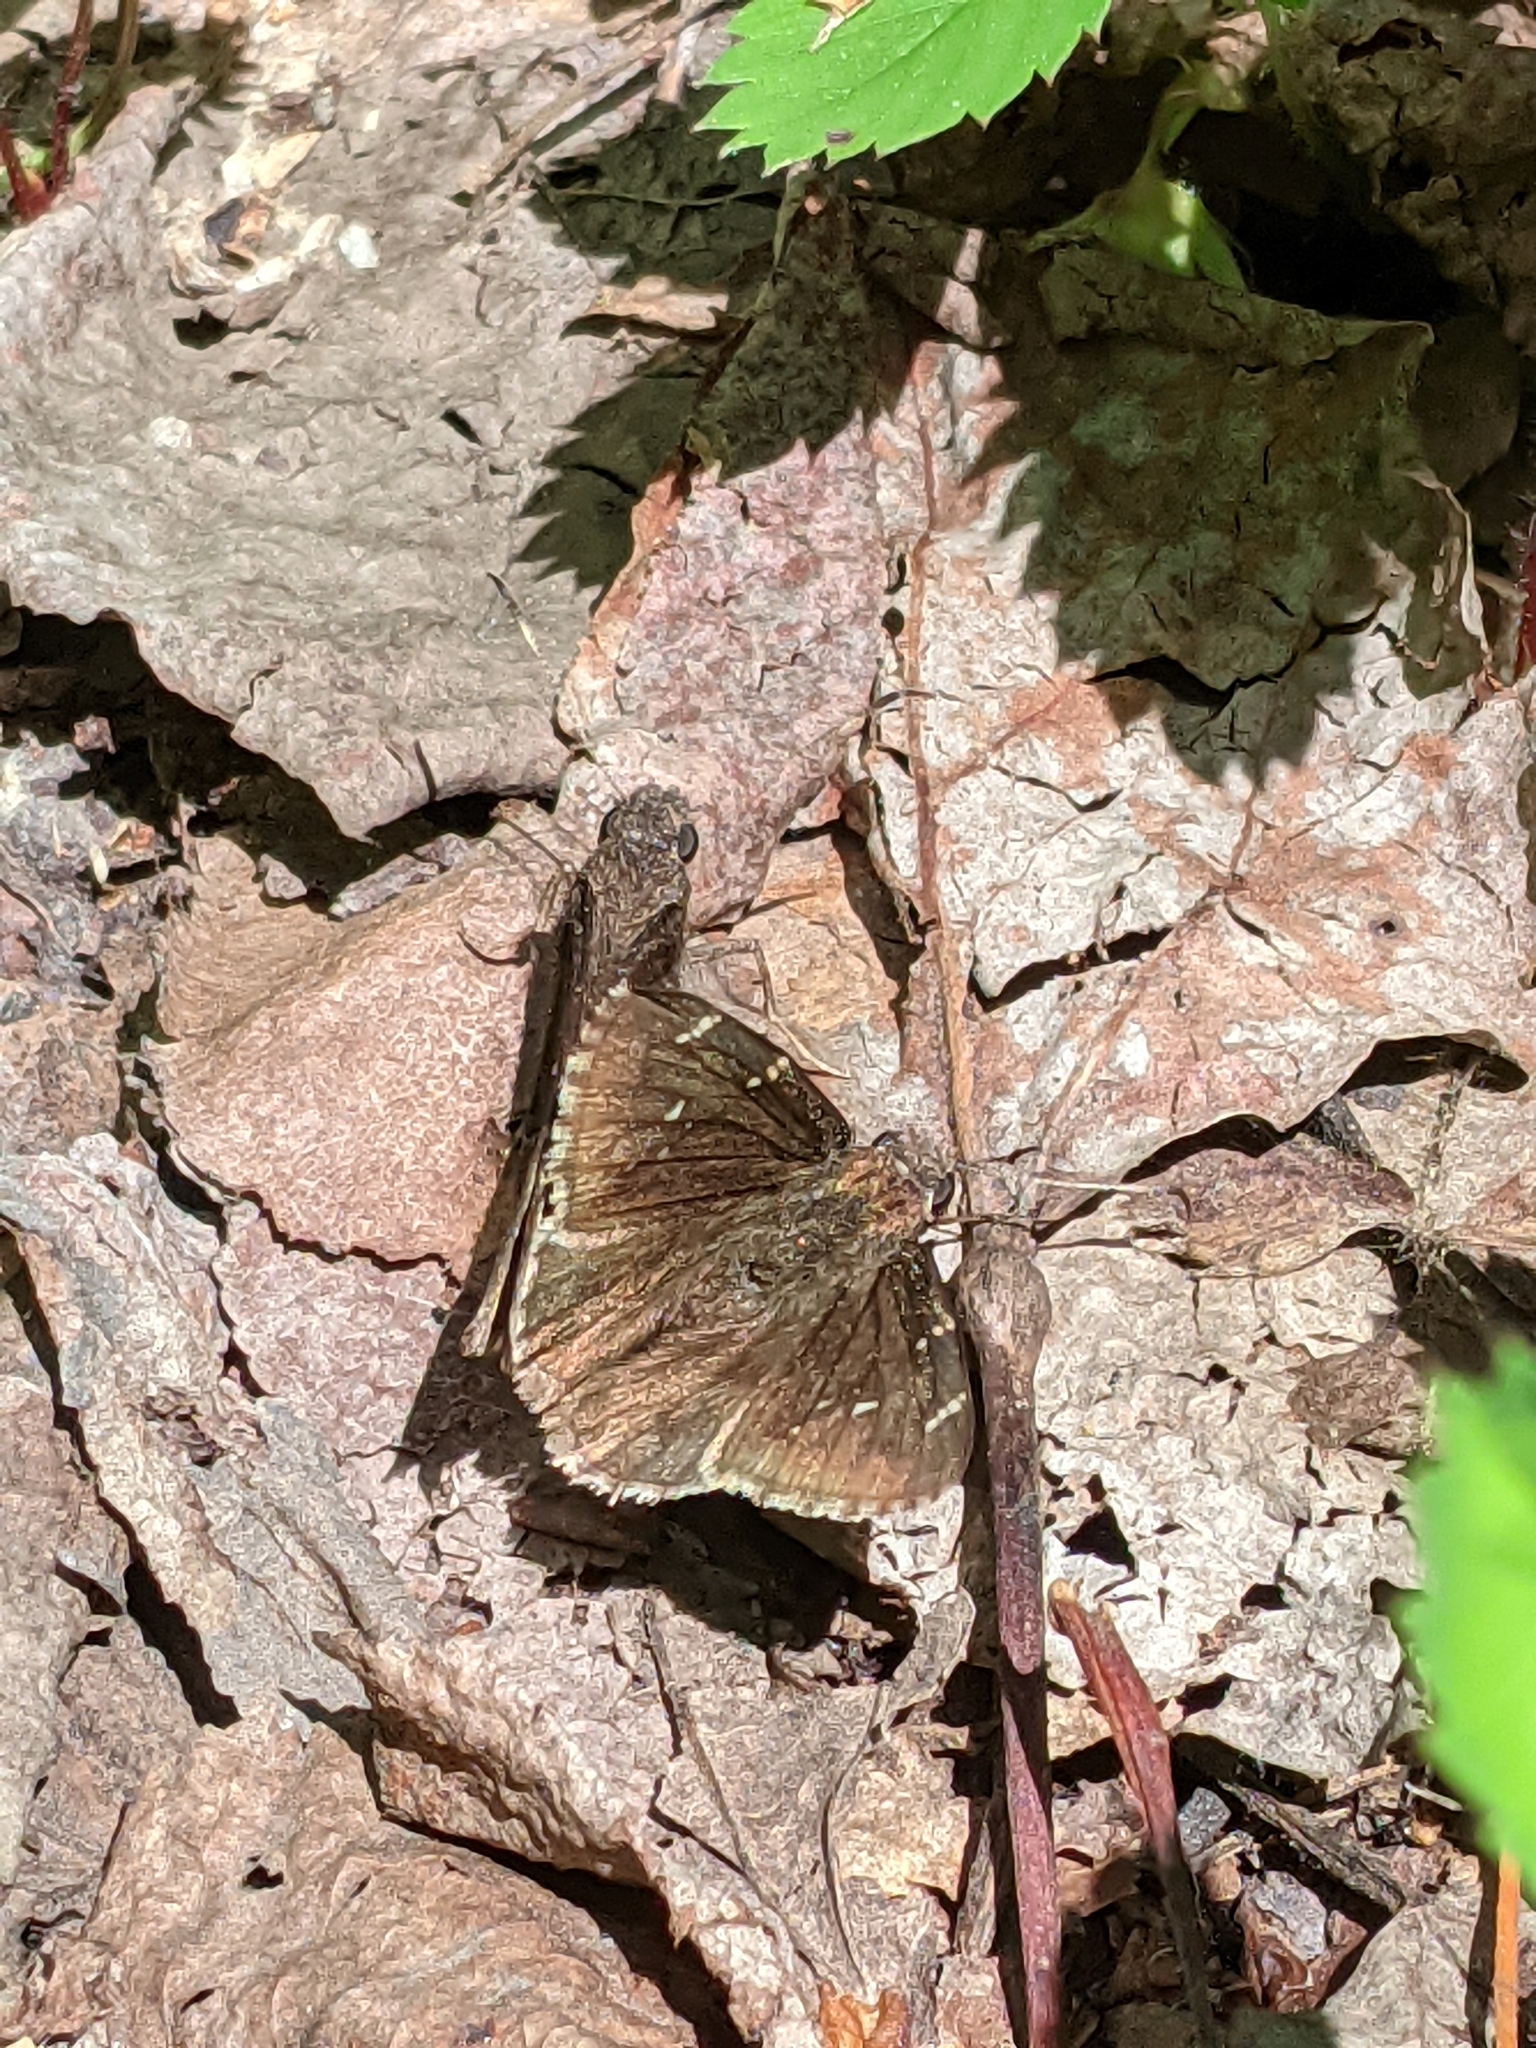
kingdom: Animalia
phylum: Arthropoda
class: Insecta
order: Lepidoptera
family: Hesperiidae
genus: Thorybes
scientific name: Thorybes pylades
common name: Northern cloudywing
